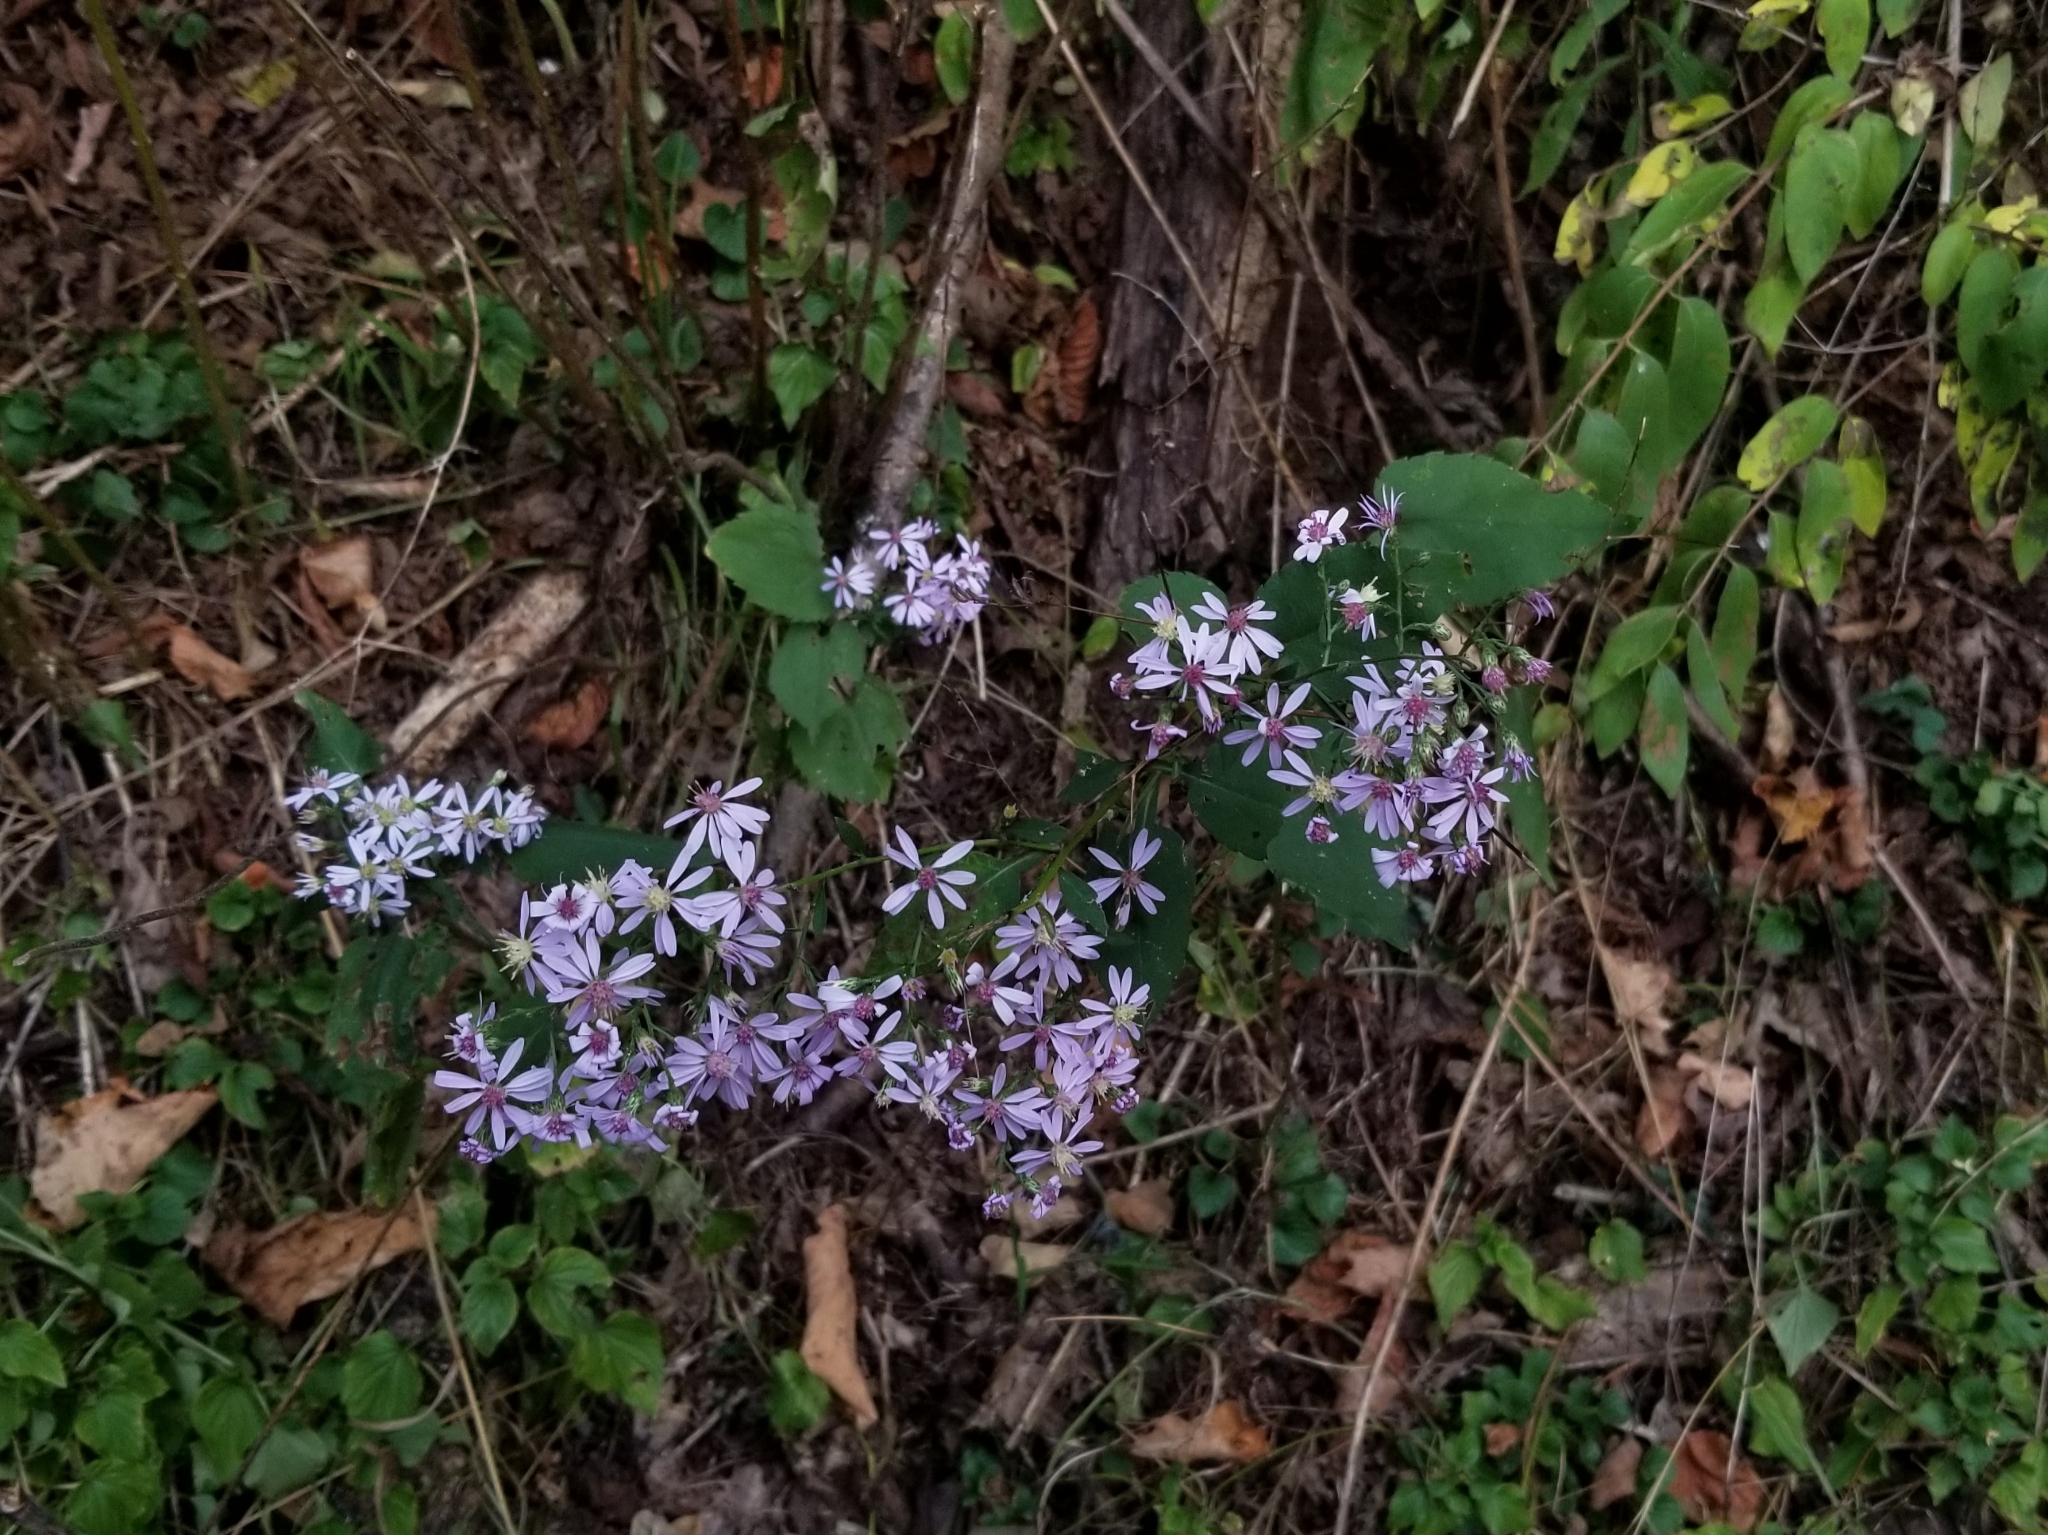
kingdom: Plantae
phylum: Tracheophyta
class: Magnoliopsida
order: Asterales
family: Asteraceae
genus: Symphyotrichum
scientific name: Symphyotrichum cordifolium
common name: Beeweed
